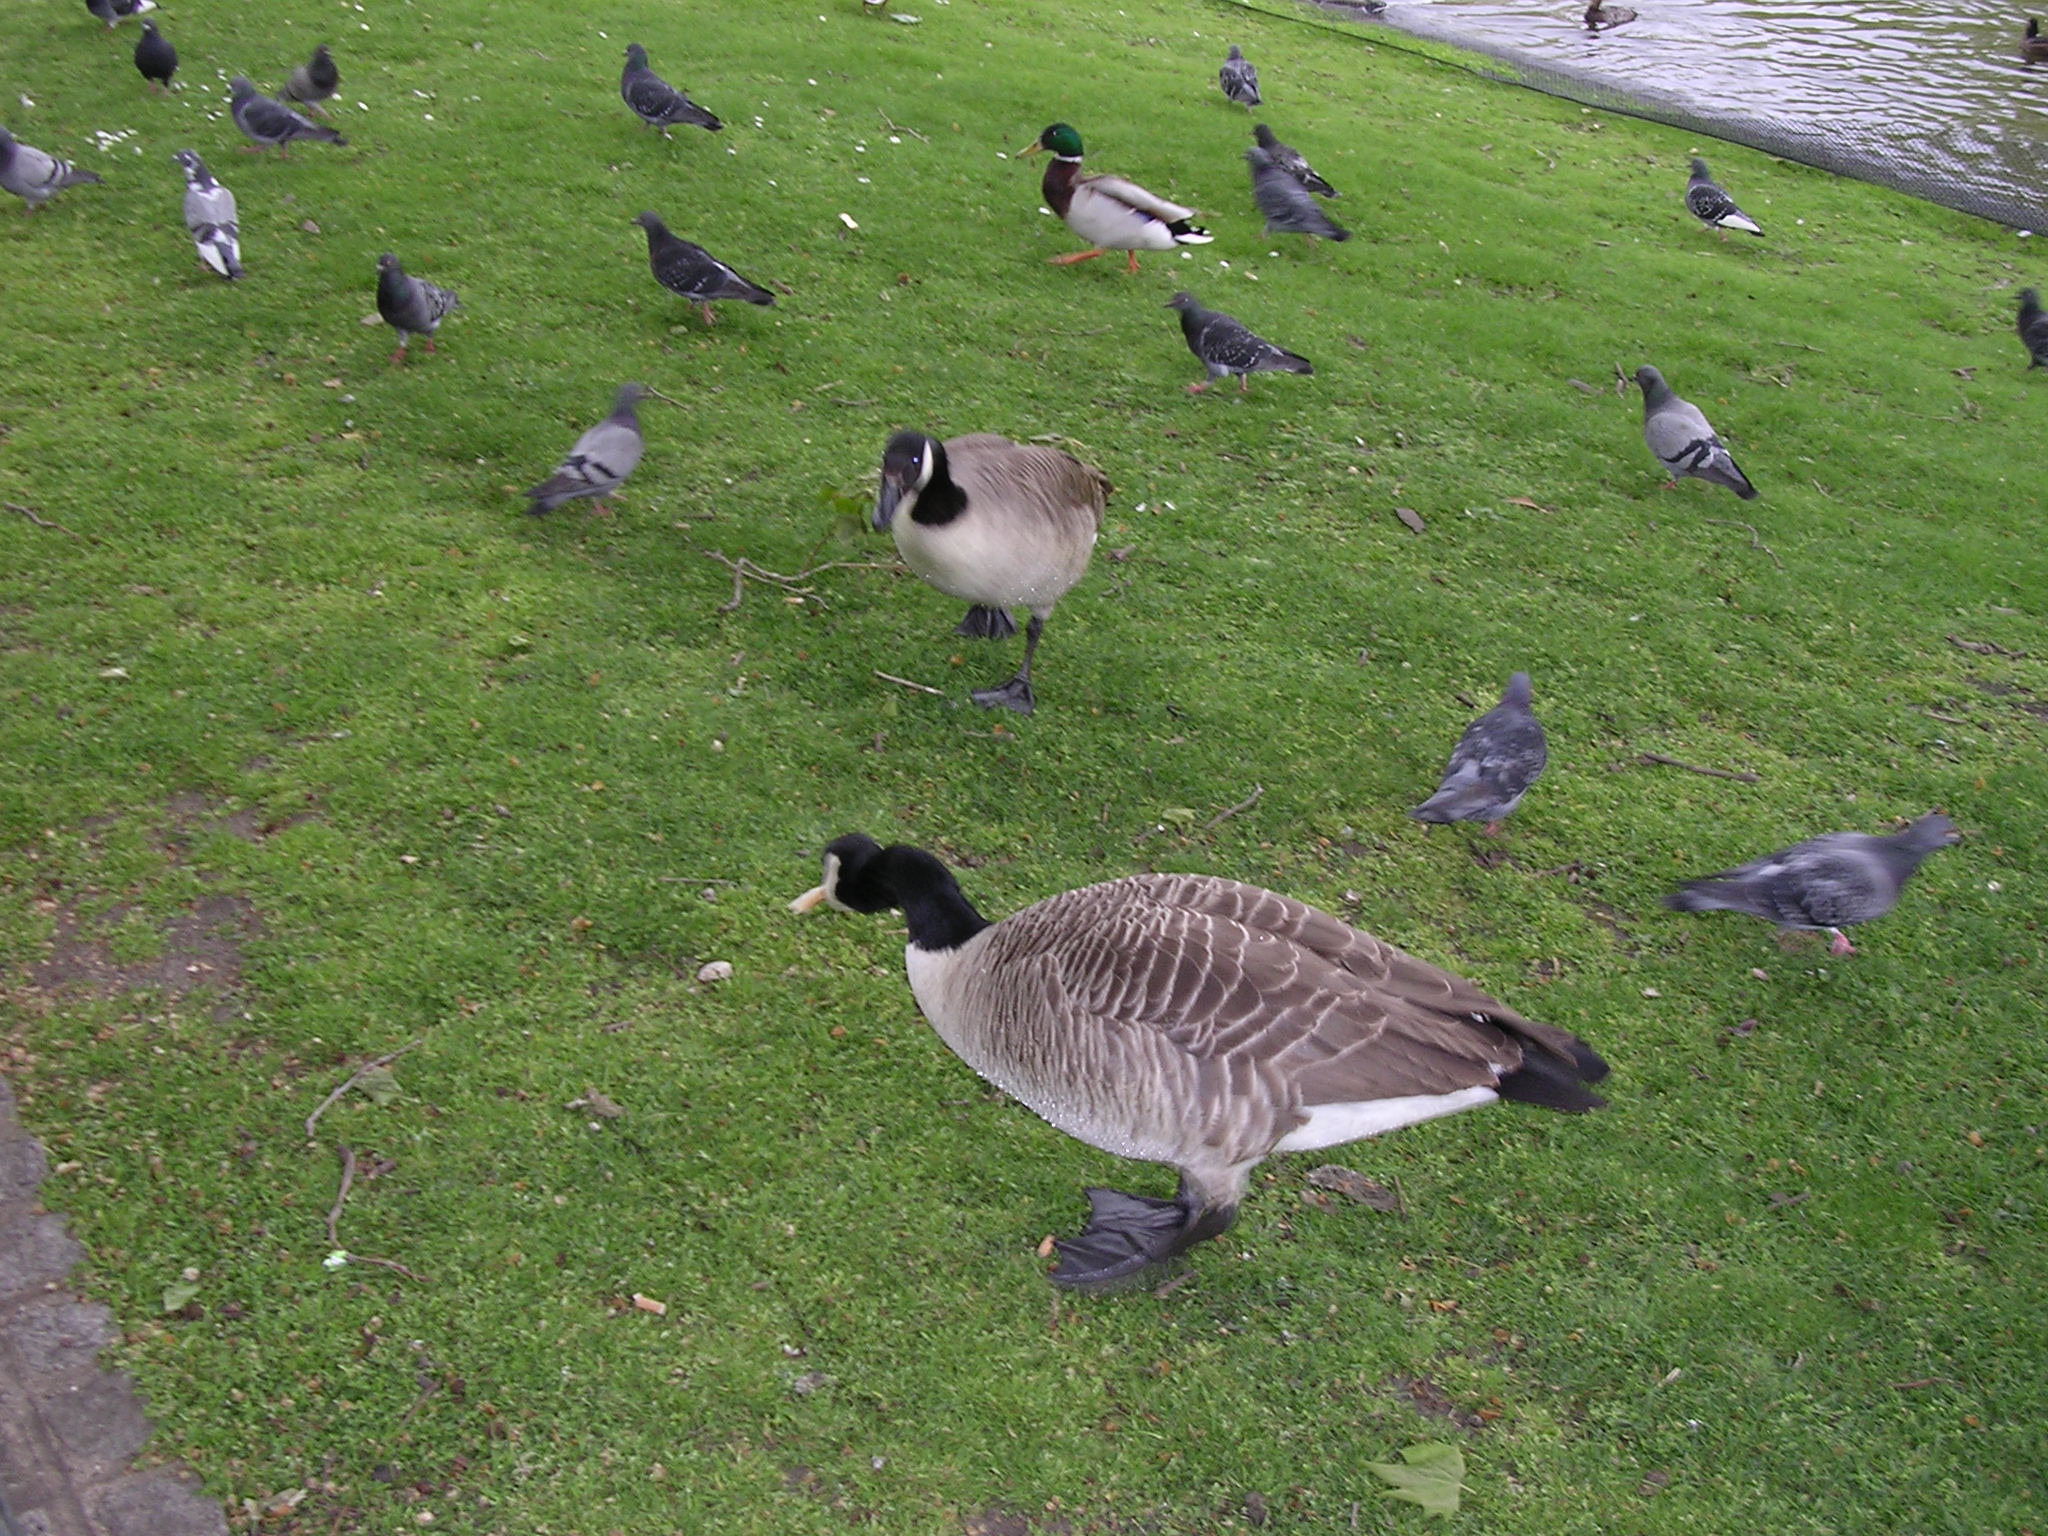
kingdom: Animalia
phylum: Chordata
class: Aves
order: Anseriformes
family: Anatidae
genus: Branta
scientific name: Branta canadensis
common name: Canada goose
